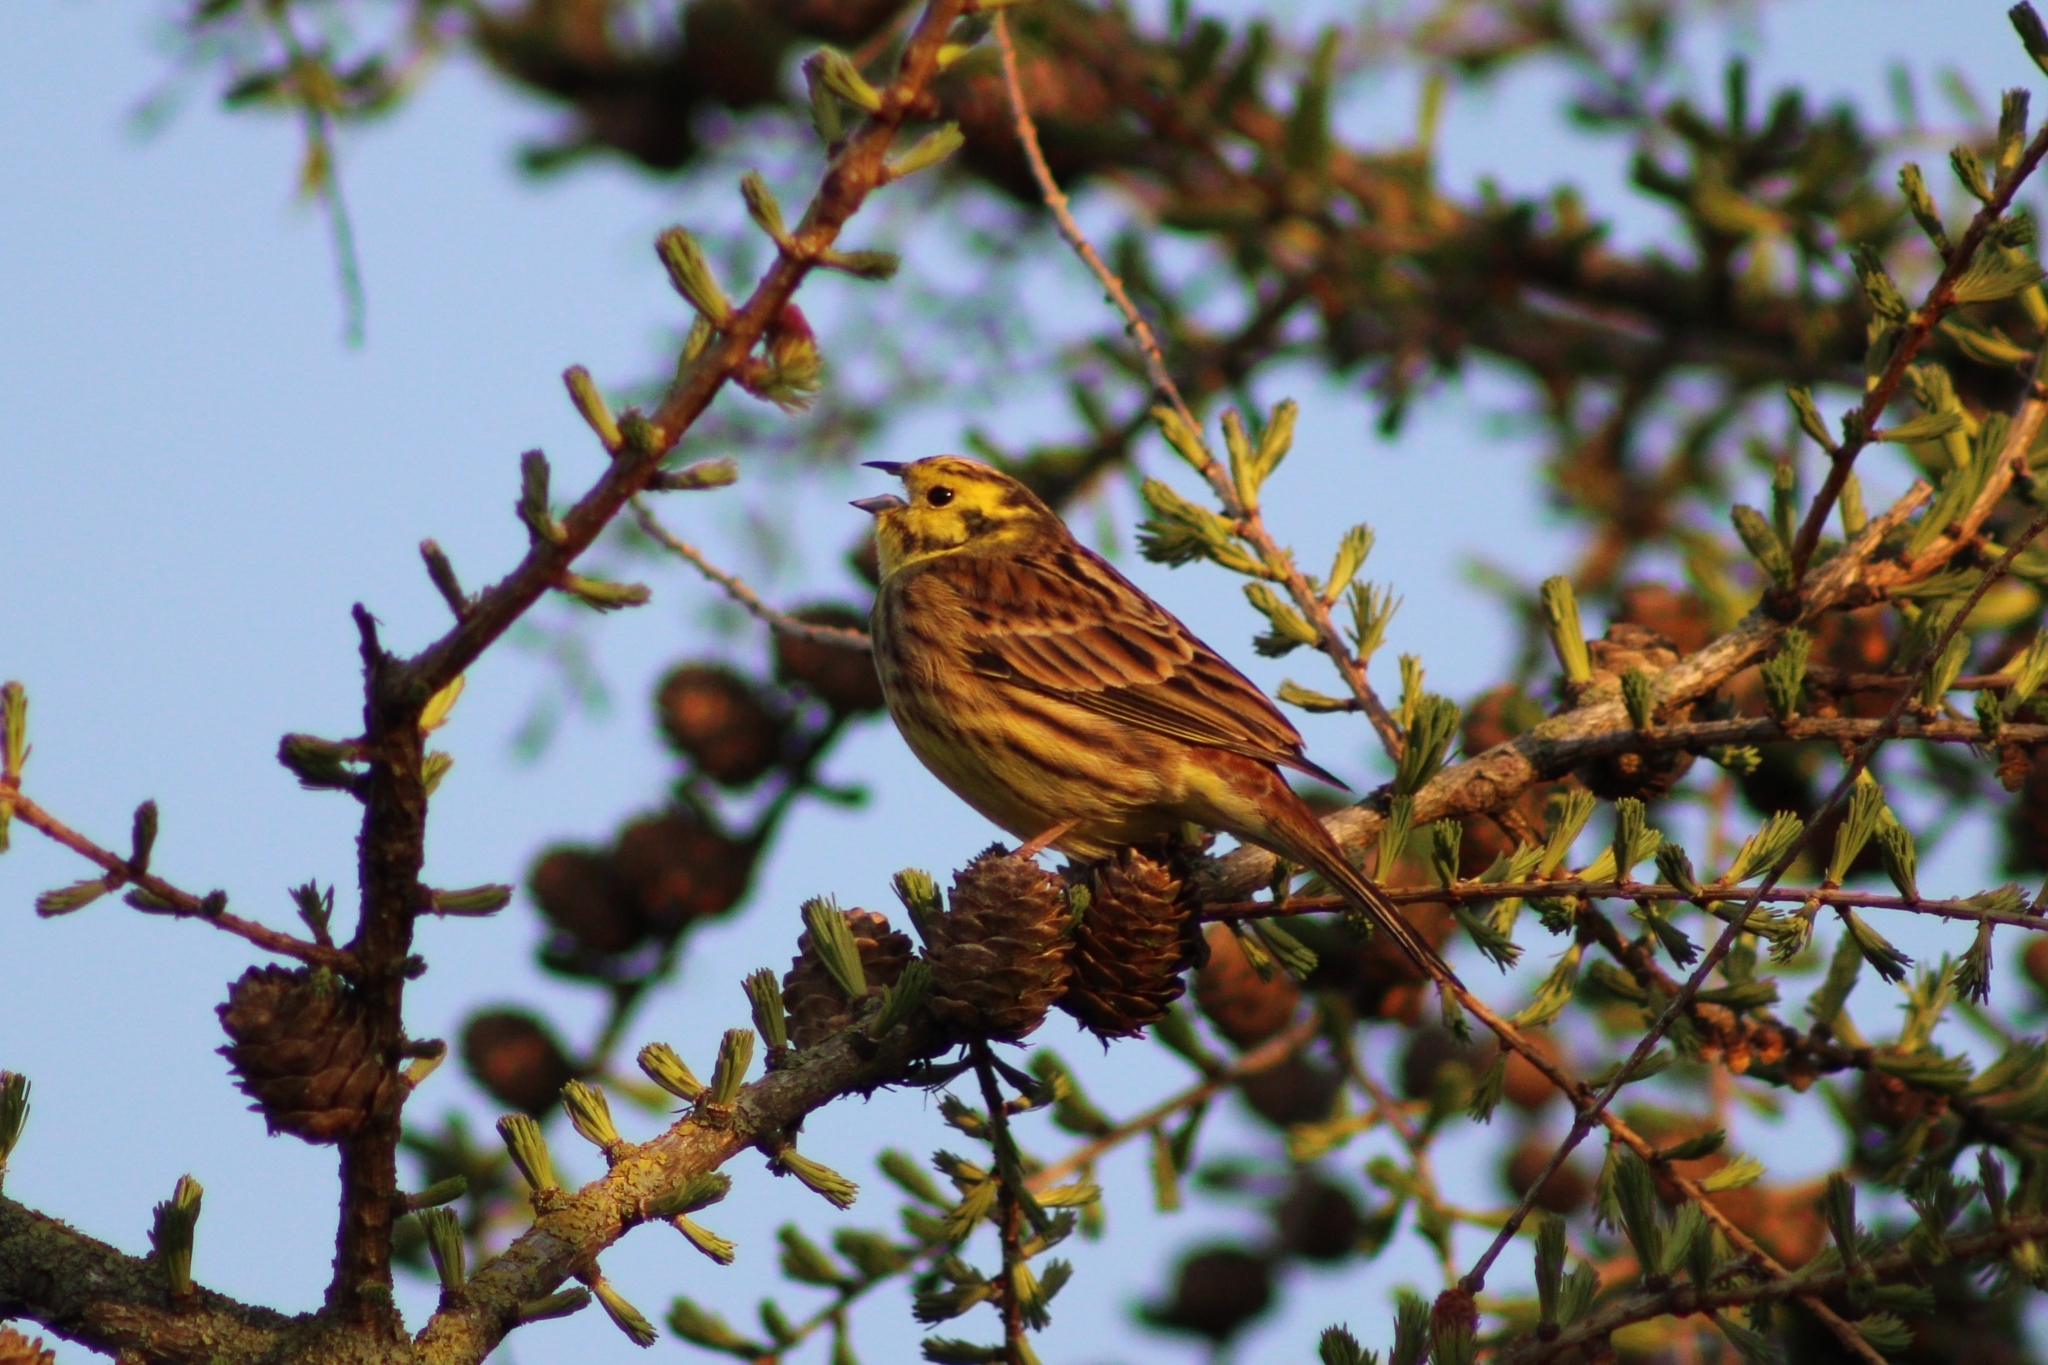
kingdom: Animalia
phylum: Chordata
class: Aves
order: Passeriformes
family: Emberizidae
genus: Emberiza
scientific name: Emberiza citrinella
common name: Yellowhammer
